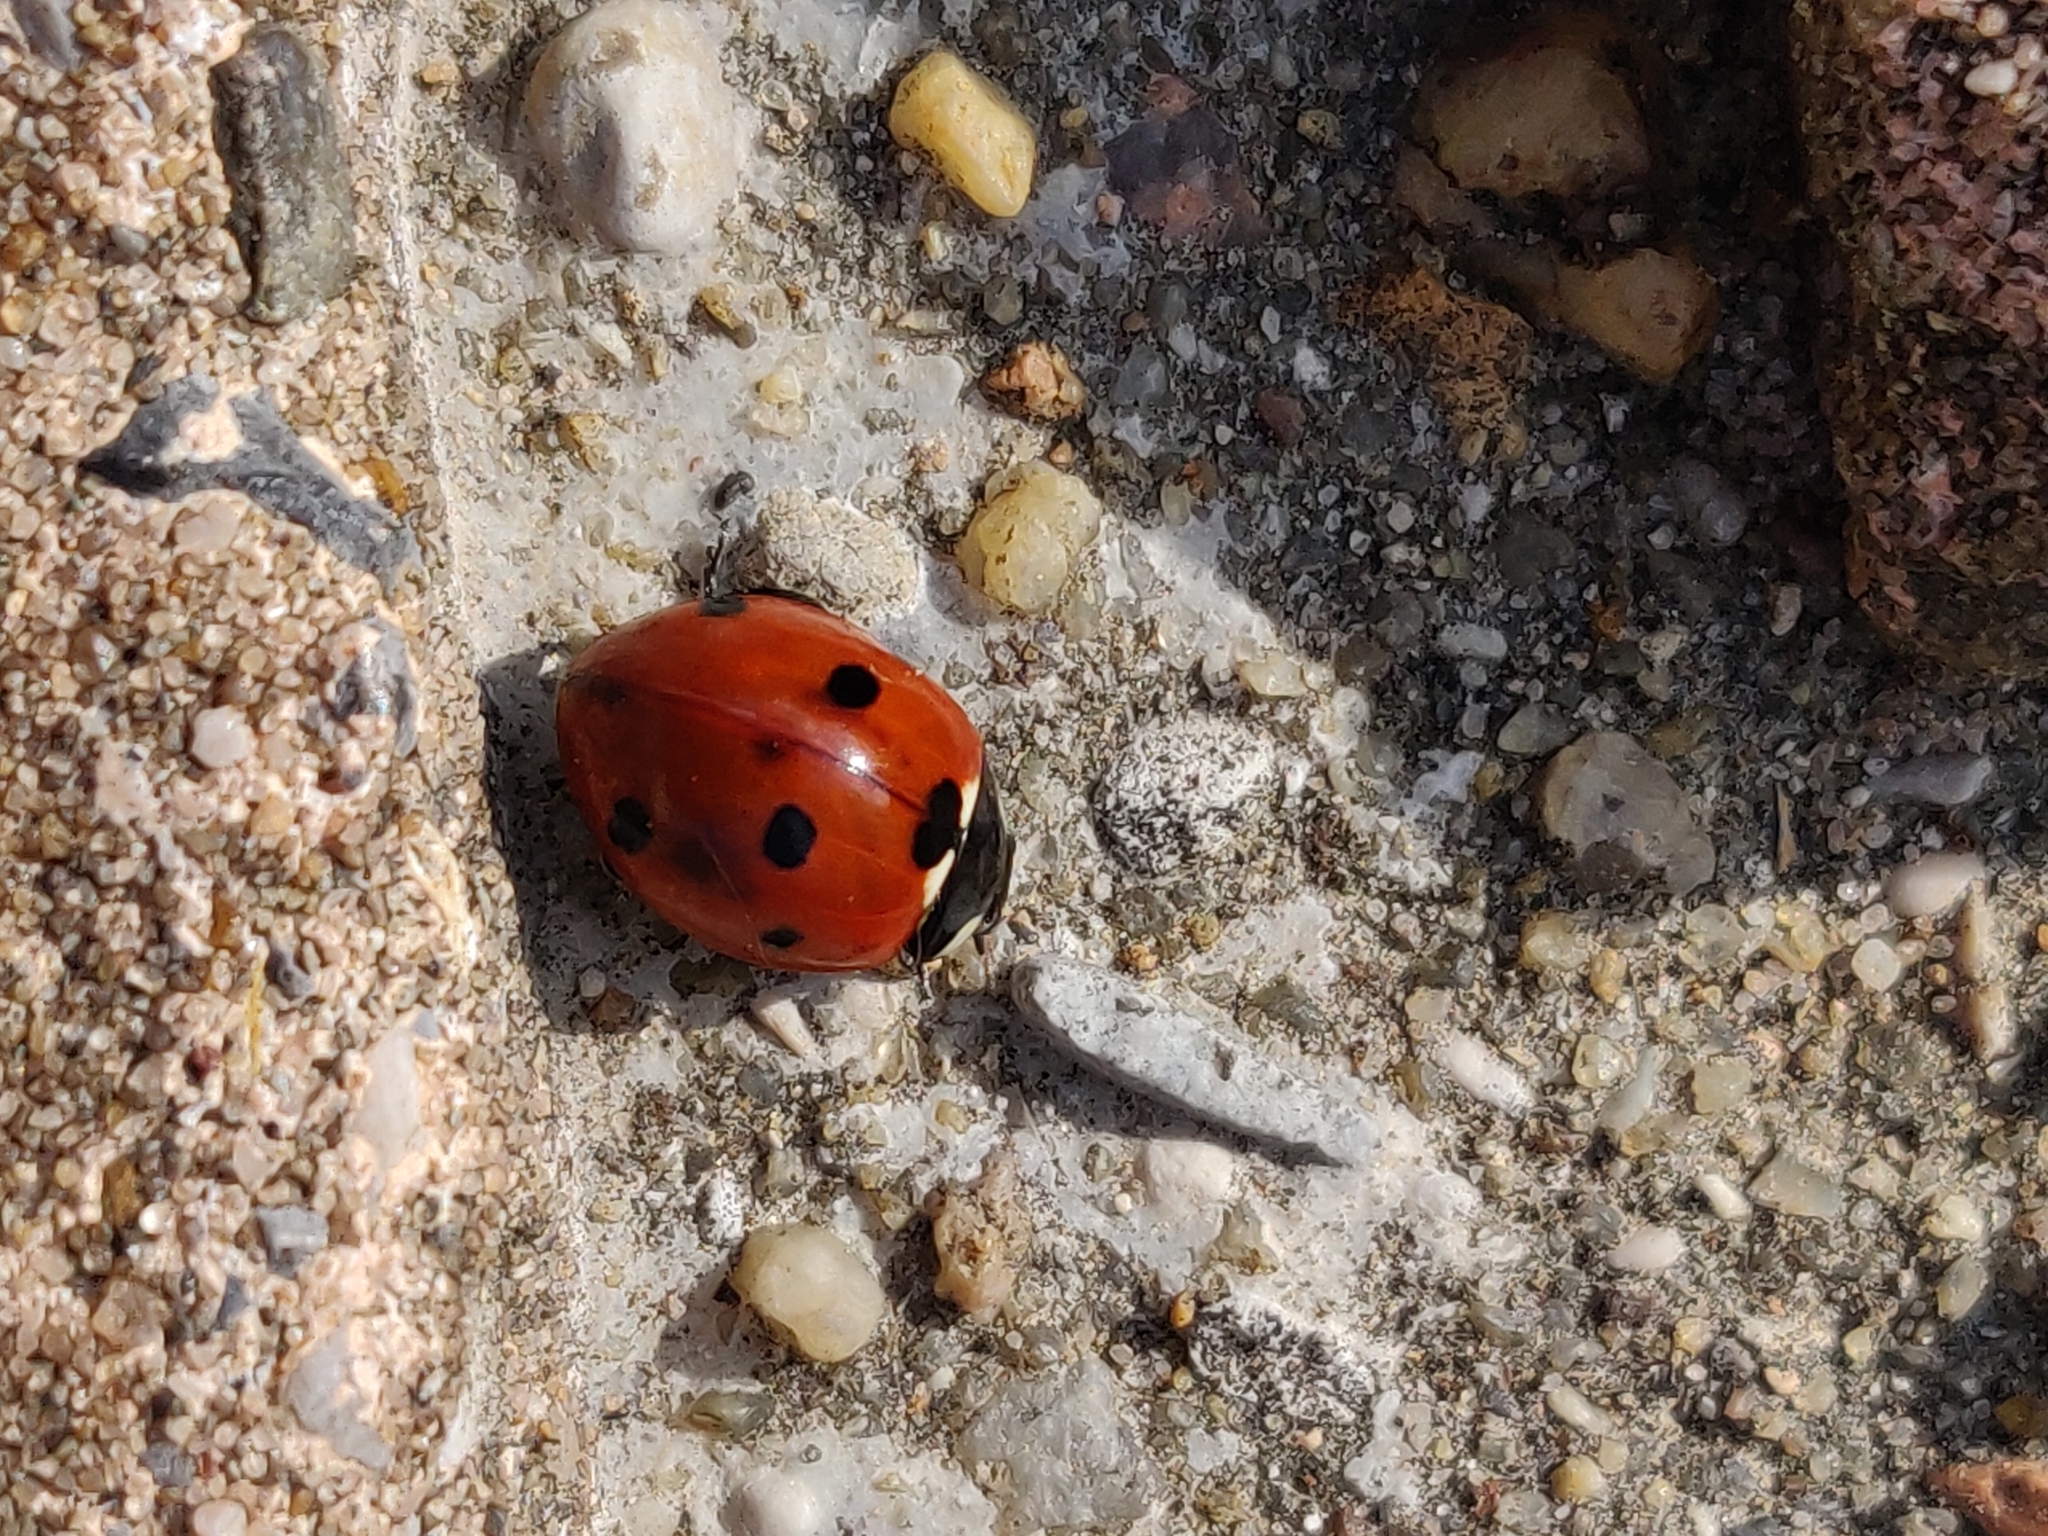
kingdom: Animalia
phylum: Arthropoda
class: Insecta
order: Coleoptera
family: Coccinellidae
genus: Coccinella
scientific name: Coccinella septempunctata
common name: Sevenspotted lady beetle
